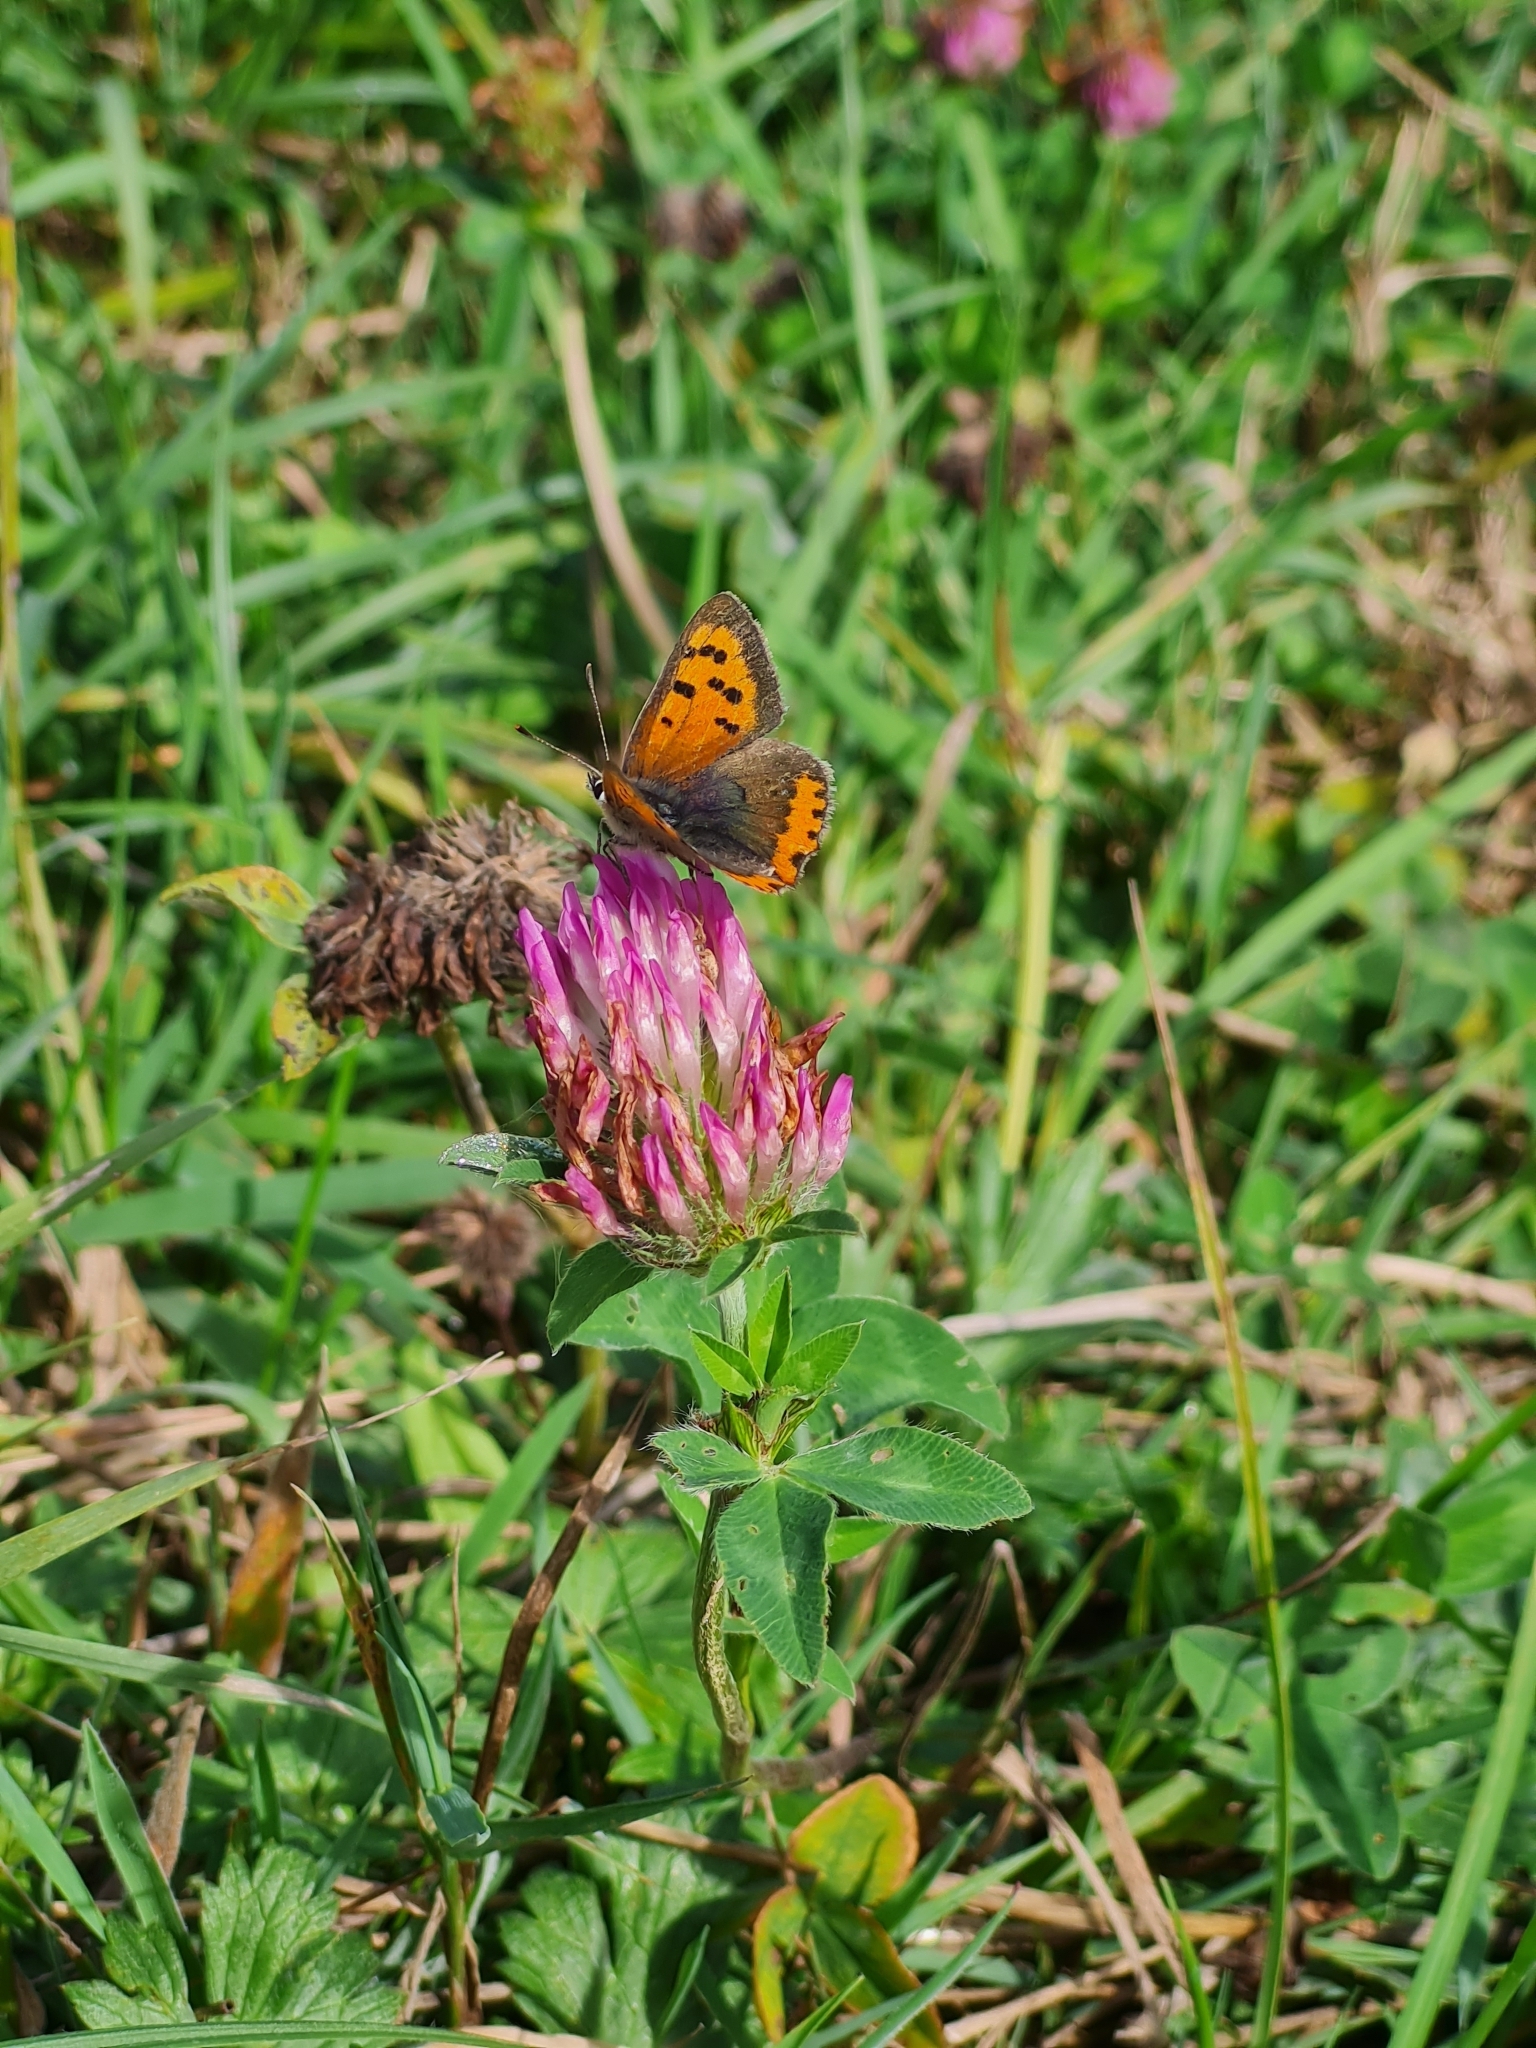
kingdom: Animalia
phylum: Arthropoda
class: Insecta
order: Lepidoptera
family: Lycaenidae
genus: Lycaena
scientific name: Lycaena phlaeas
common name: Small copper
